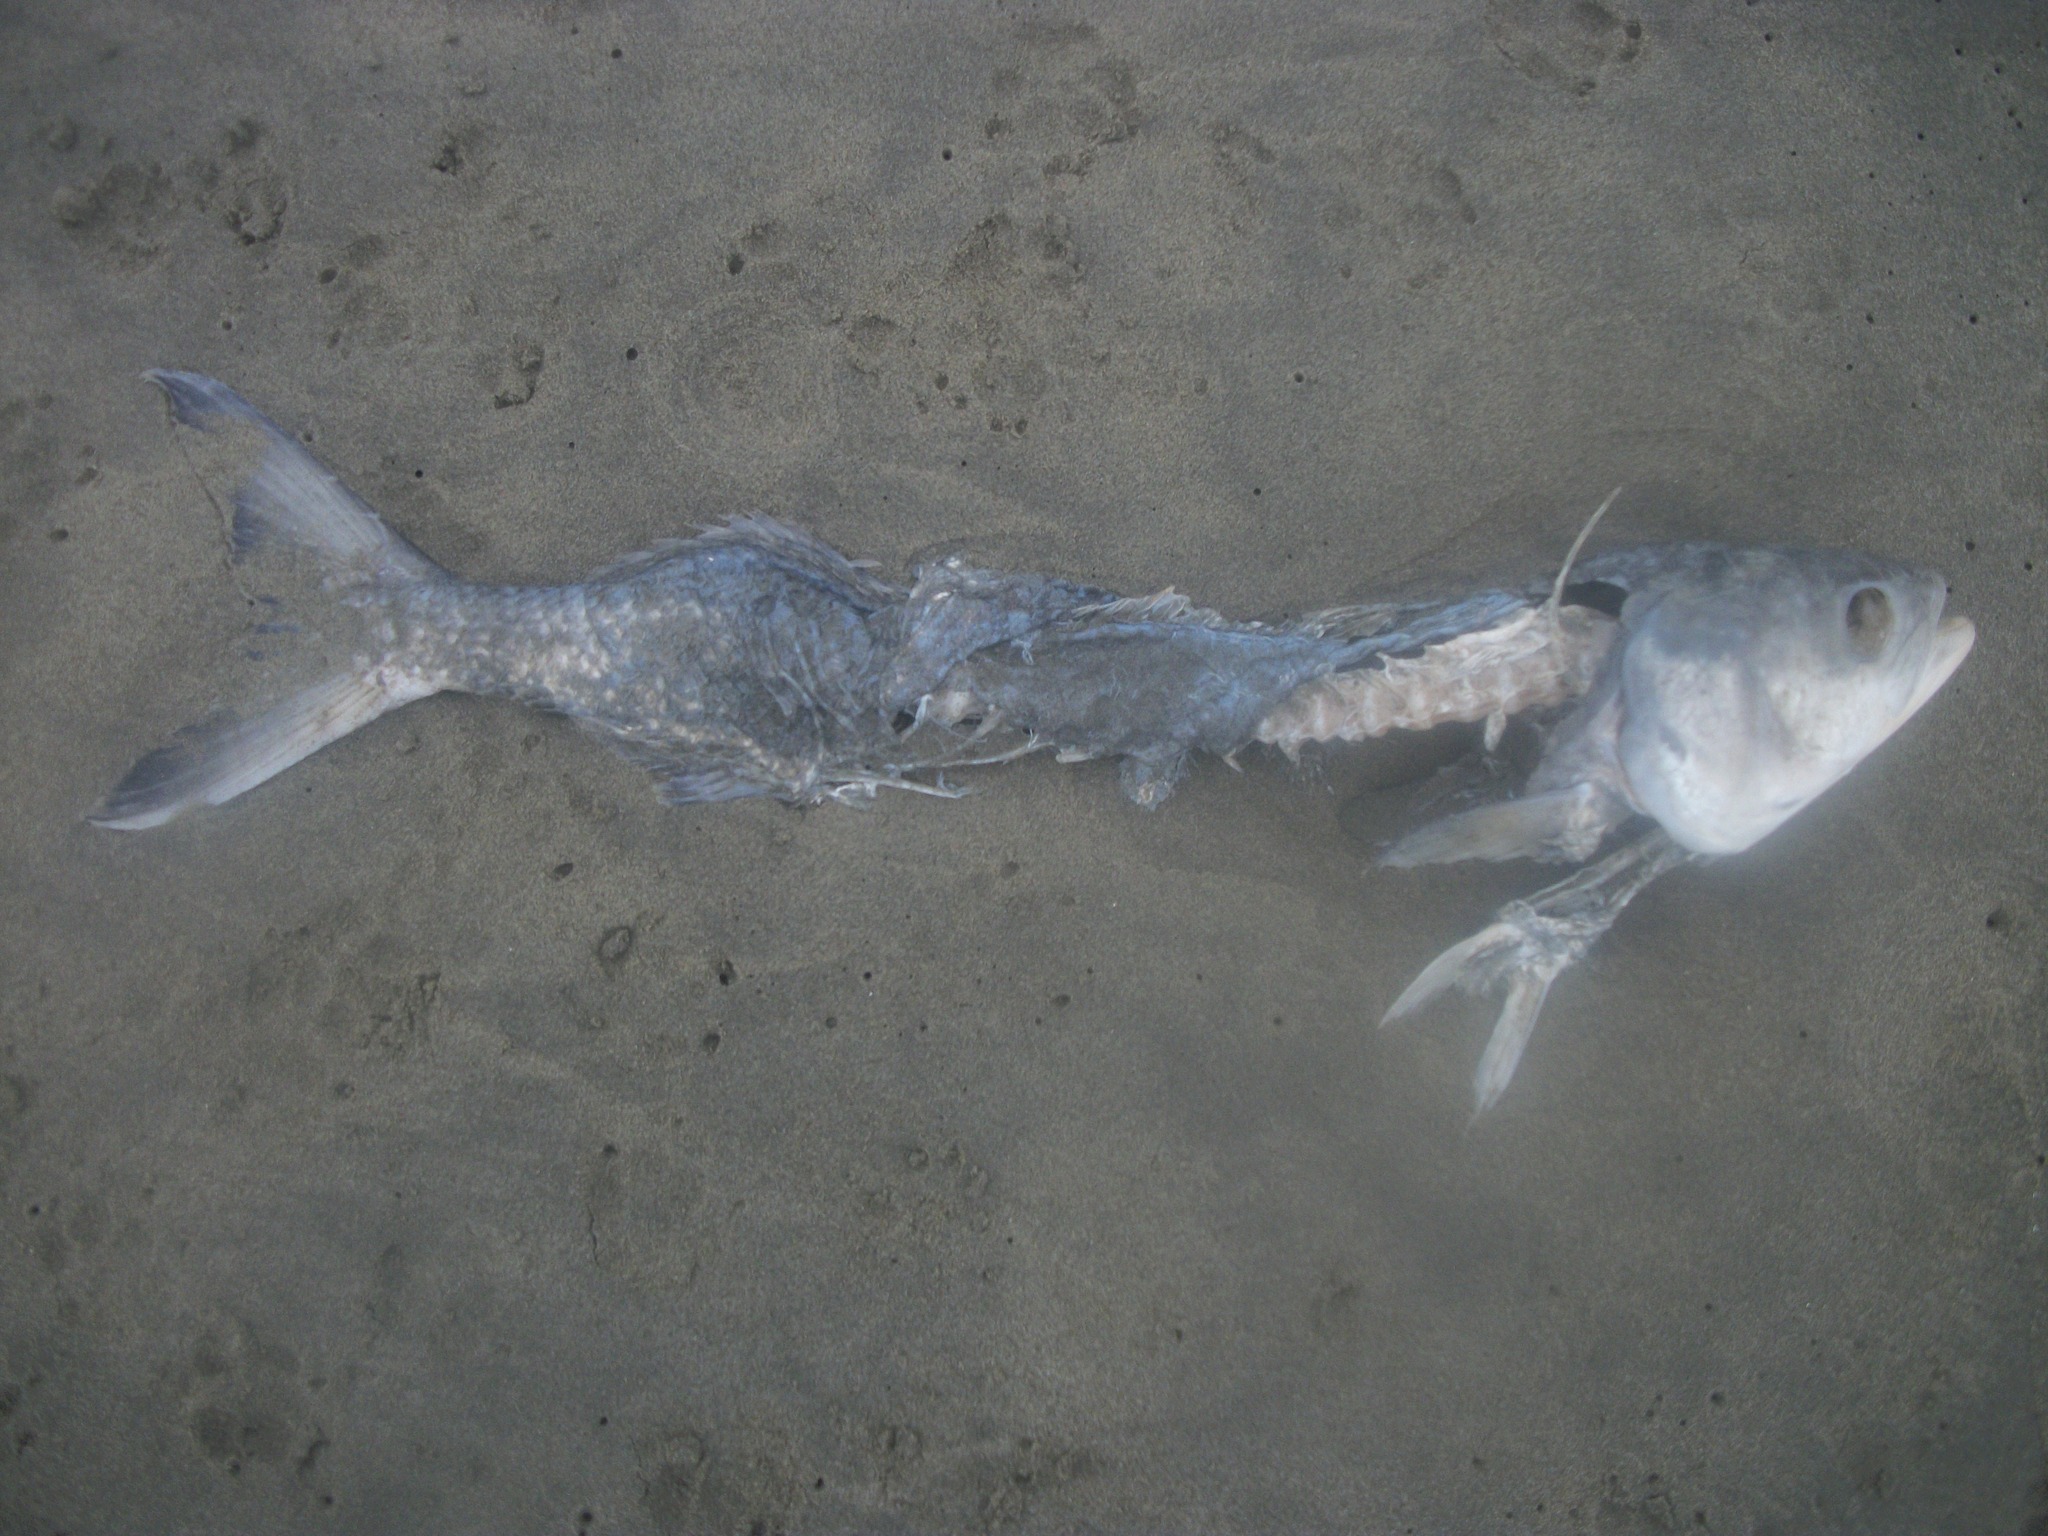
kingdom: Animalia
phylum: Chordata
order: Perciformes
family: Arripidae
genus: Arripis
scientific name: Arripis trutta
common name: Kahawai
